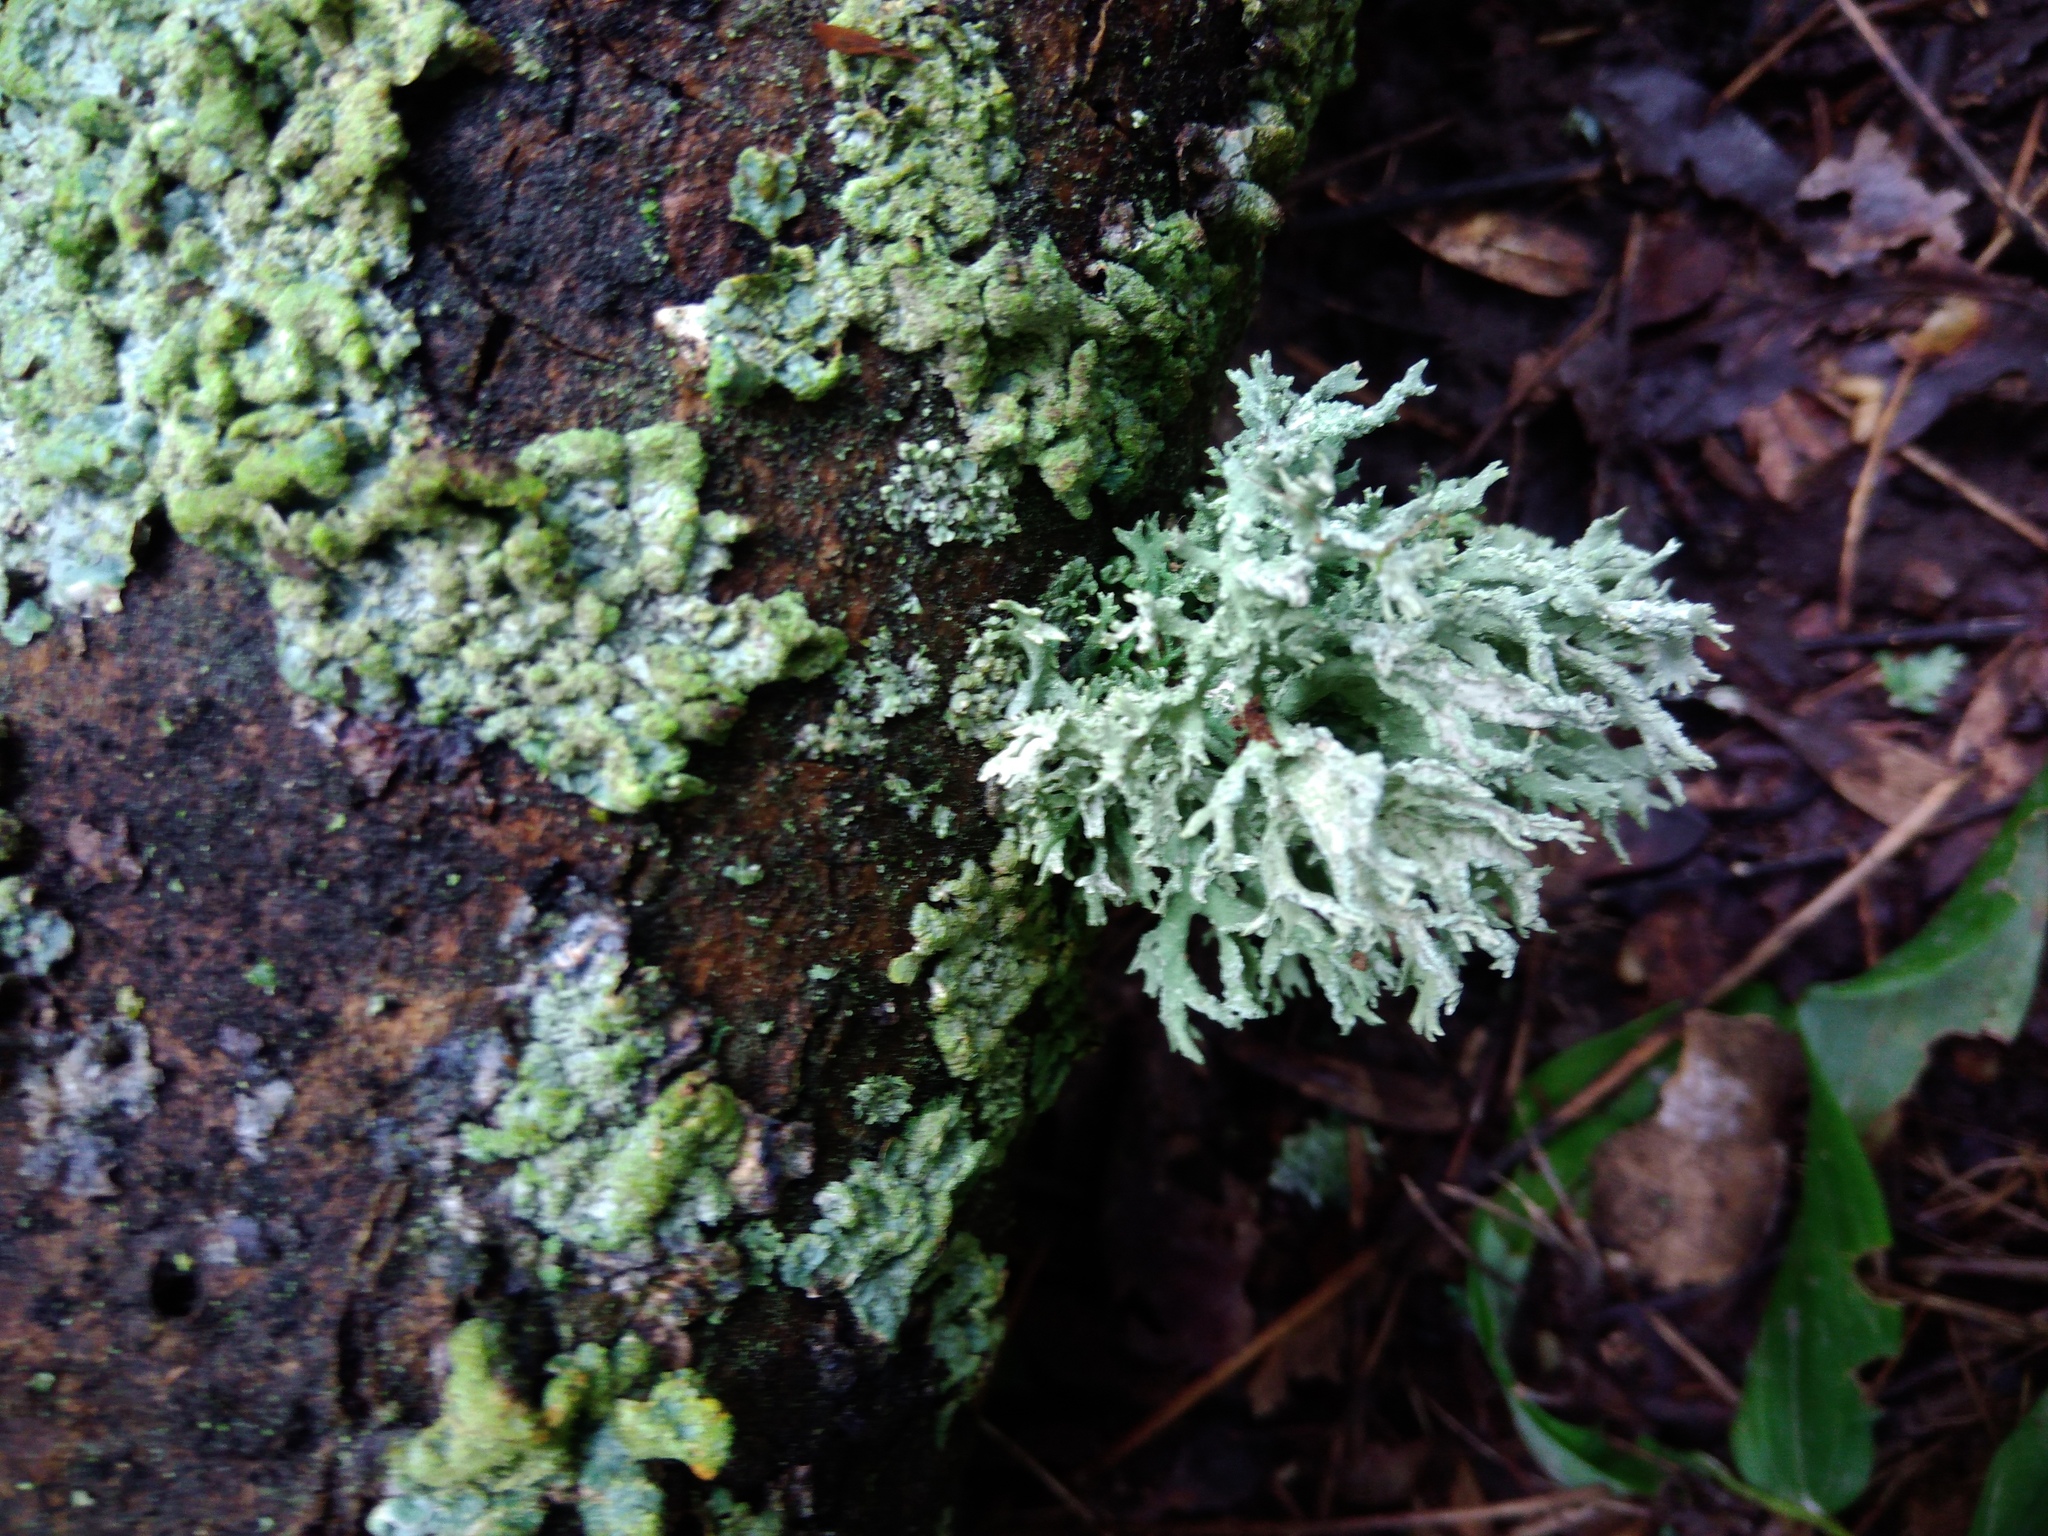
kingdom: Fungi
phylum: Ascomycota
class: Lecanoromycetes
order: Lecanorales
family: Parmeliaceae
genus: Evernia
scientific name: Evernia prunastri
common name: Oak moss
